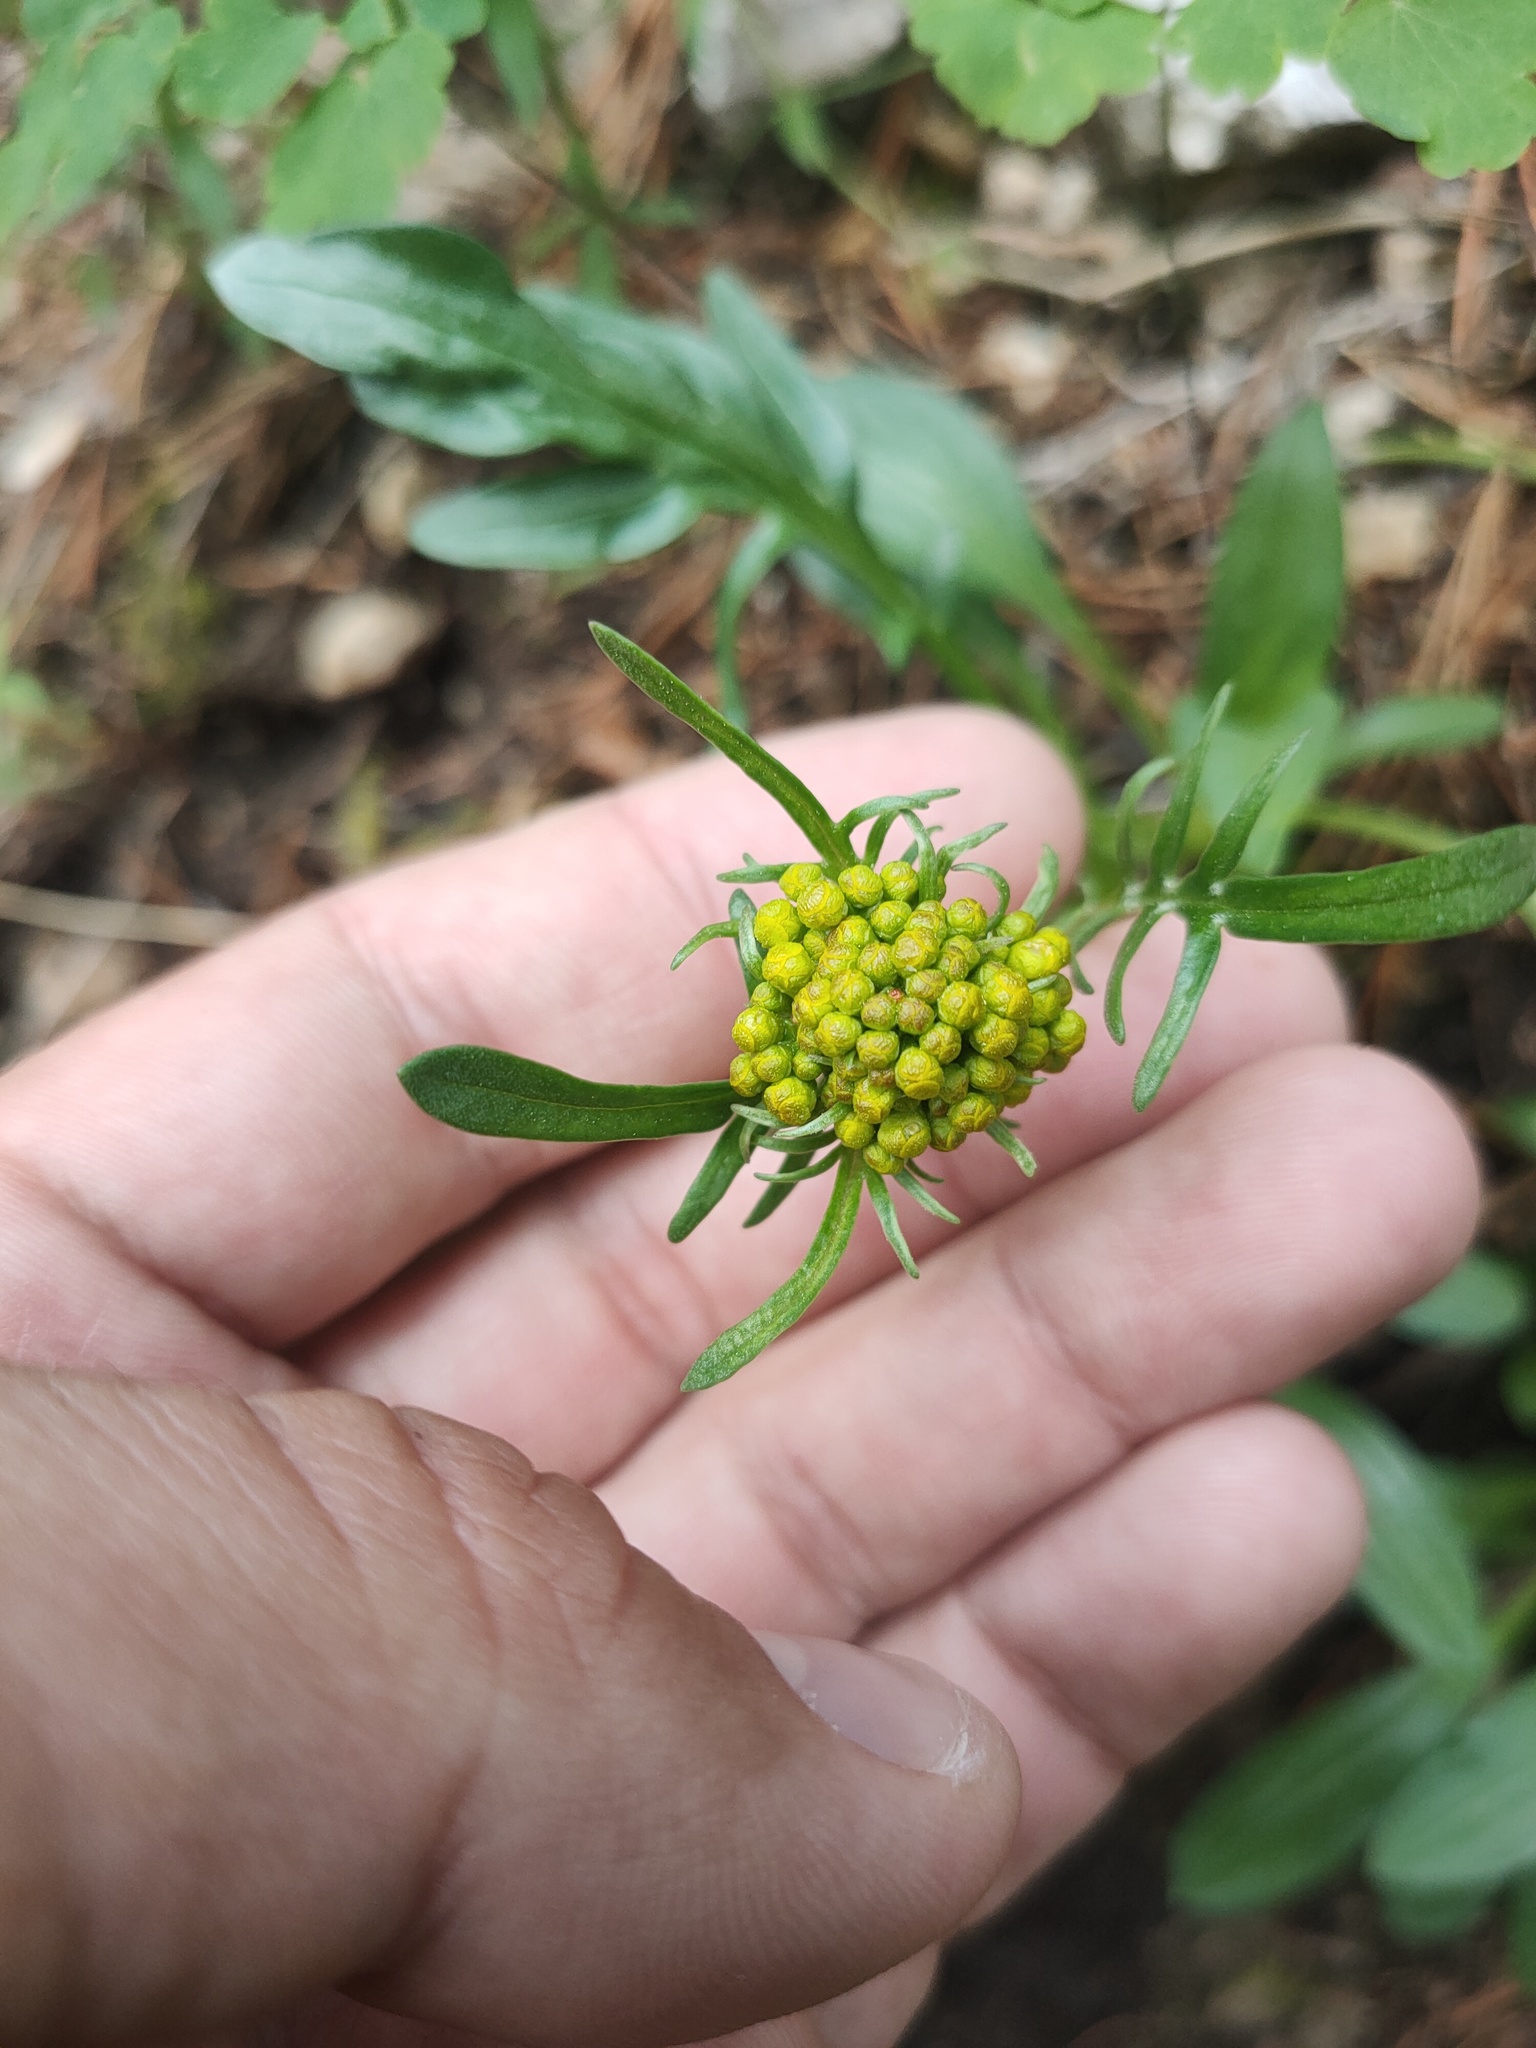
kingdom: Plantae
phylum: Tracheophyta
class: Magnoliopsida
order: Dipsacales
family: Caprifoliaceae
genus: Patrinia
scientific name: Patrinia sibirica
